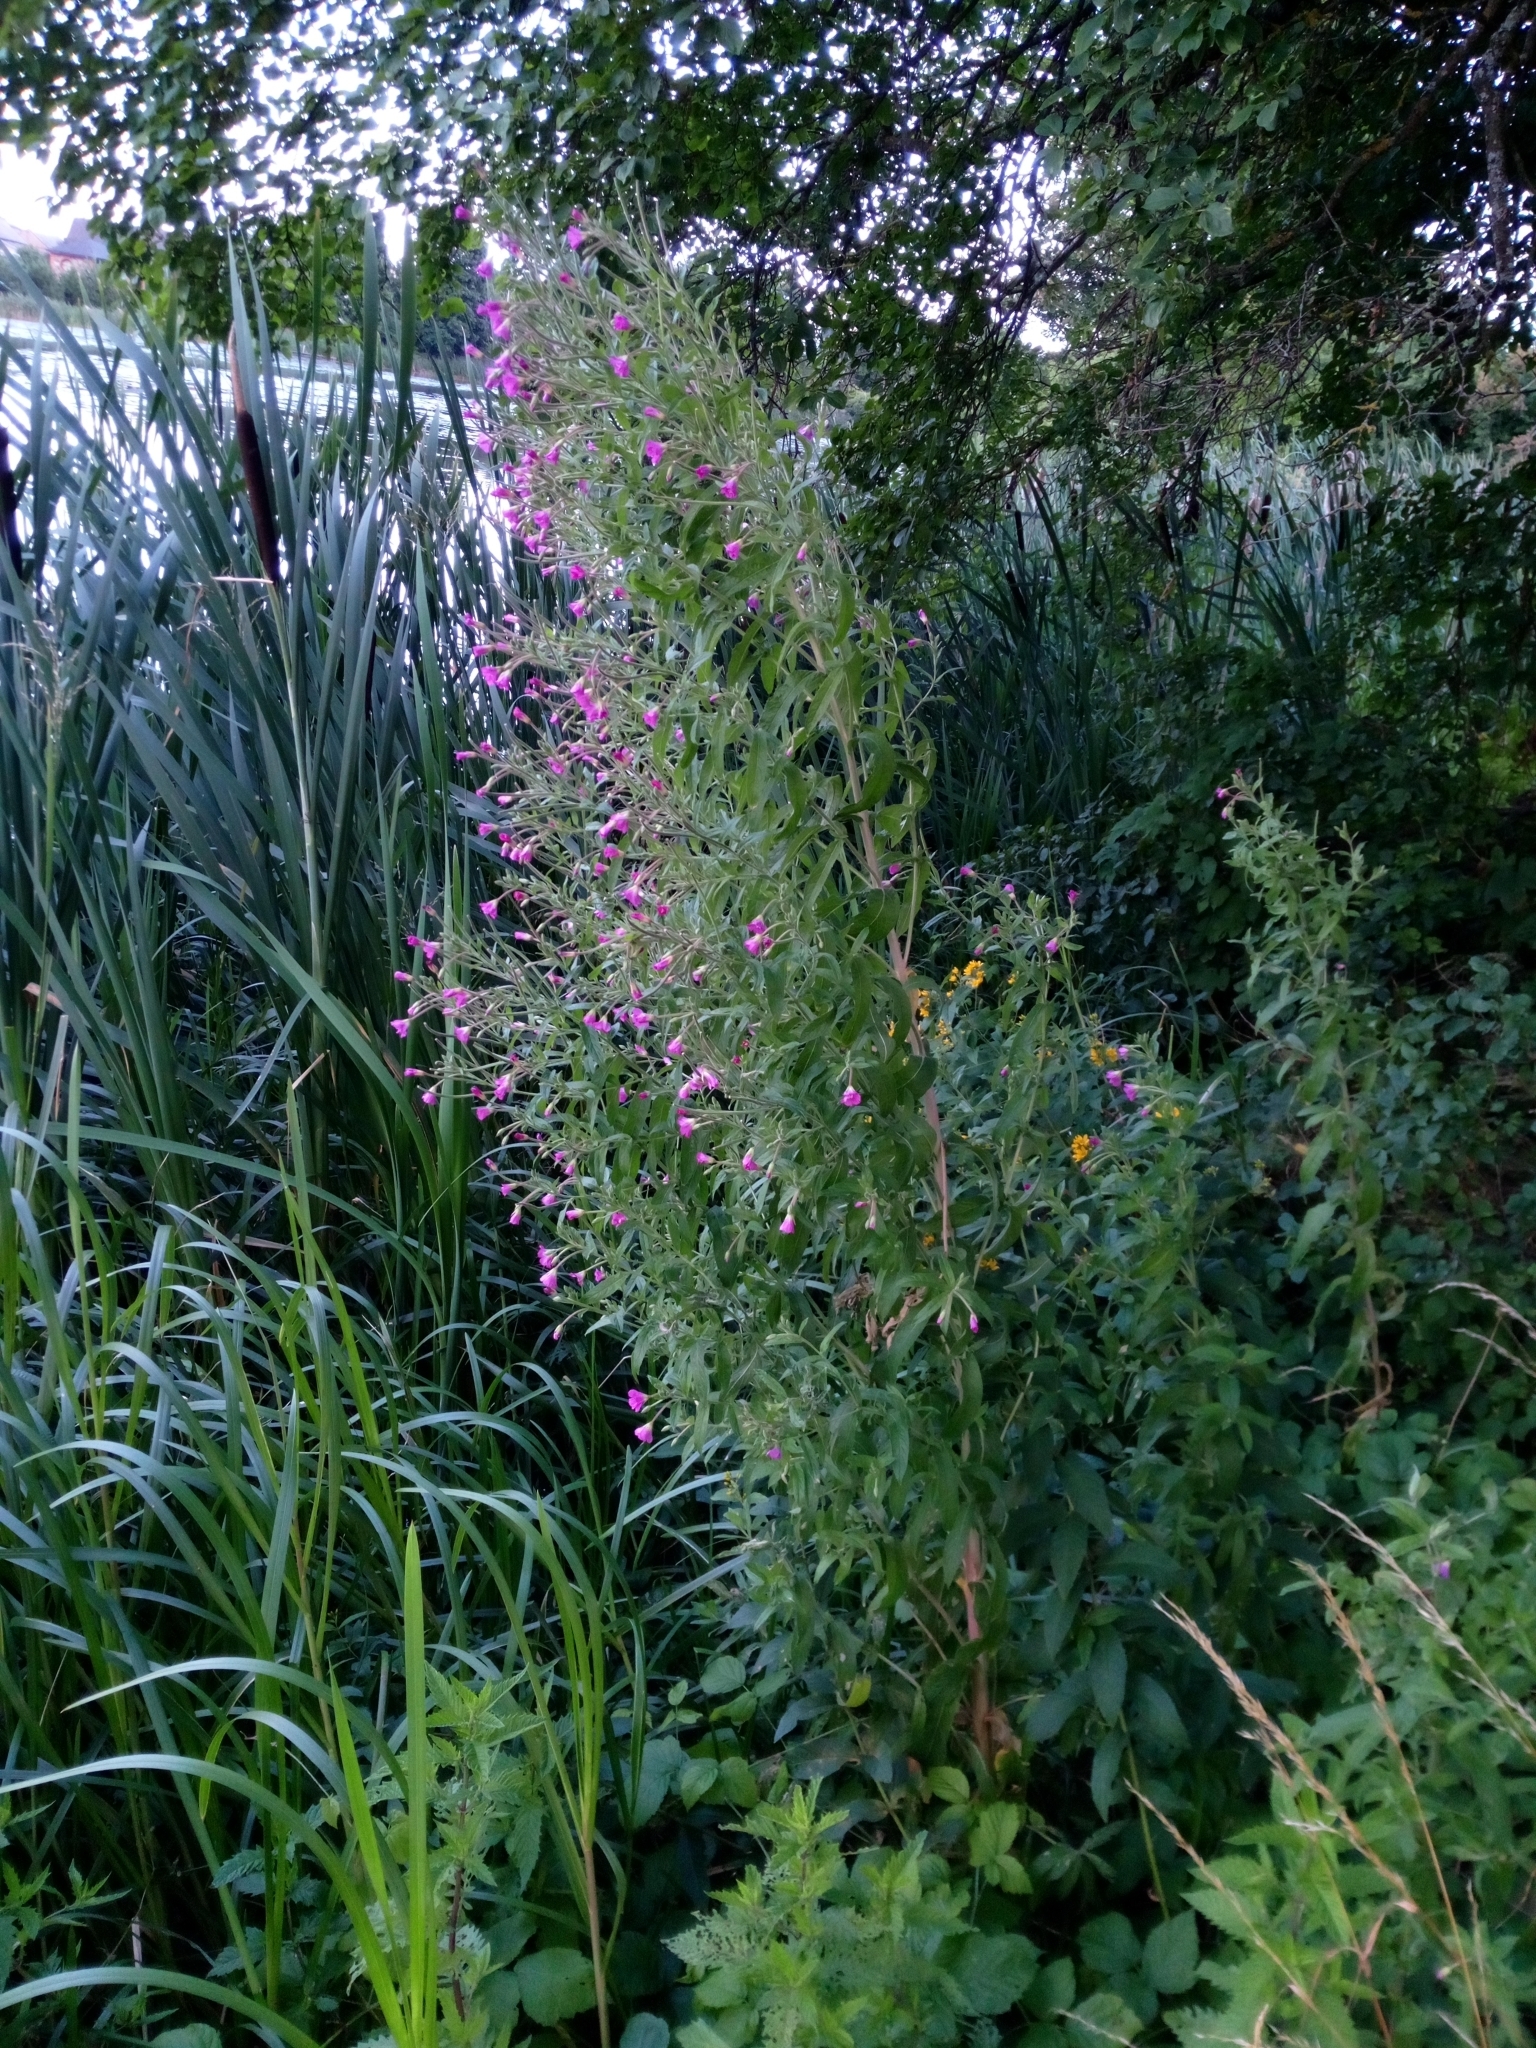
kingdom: Plantae
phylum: Tracheophyta
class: Magnoliopsida
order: Myrtales
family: Onagraceae
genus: Epilobium
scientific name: Epilobium hirsutum
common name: Great willowherb
